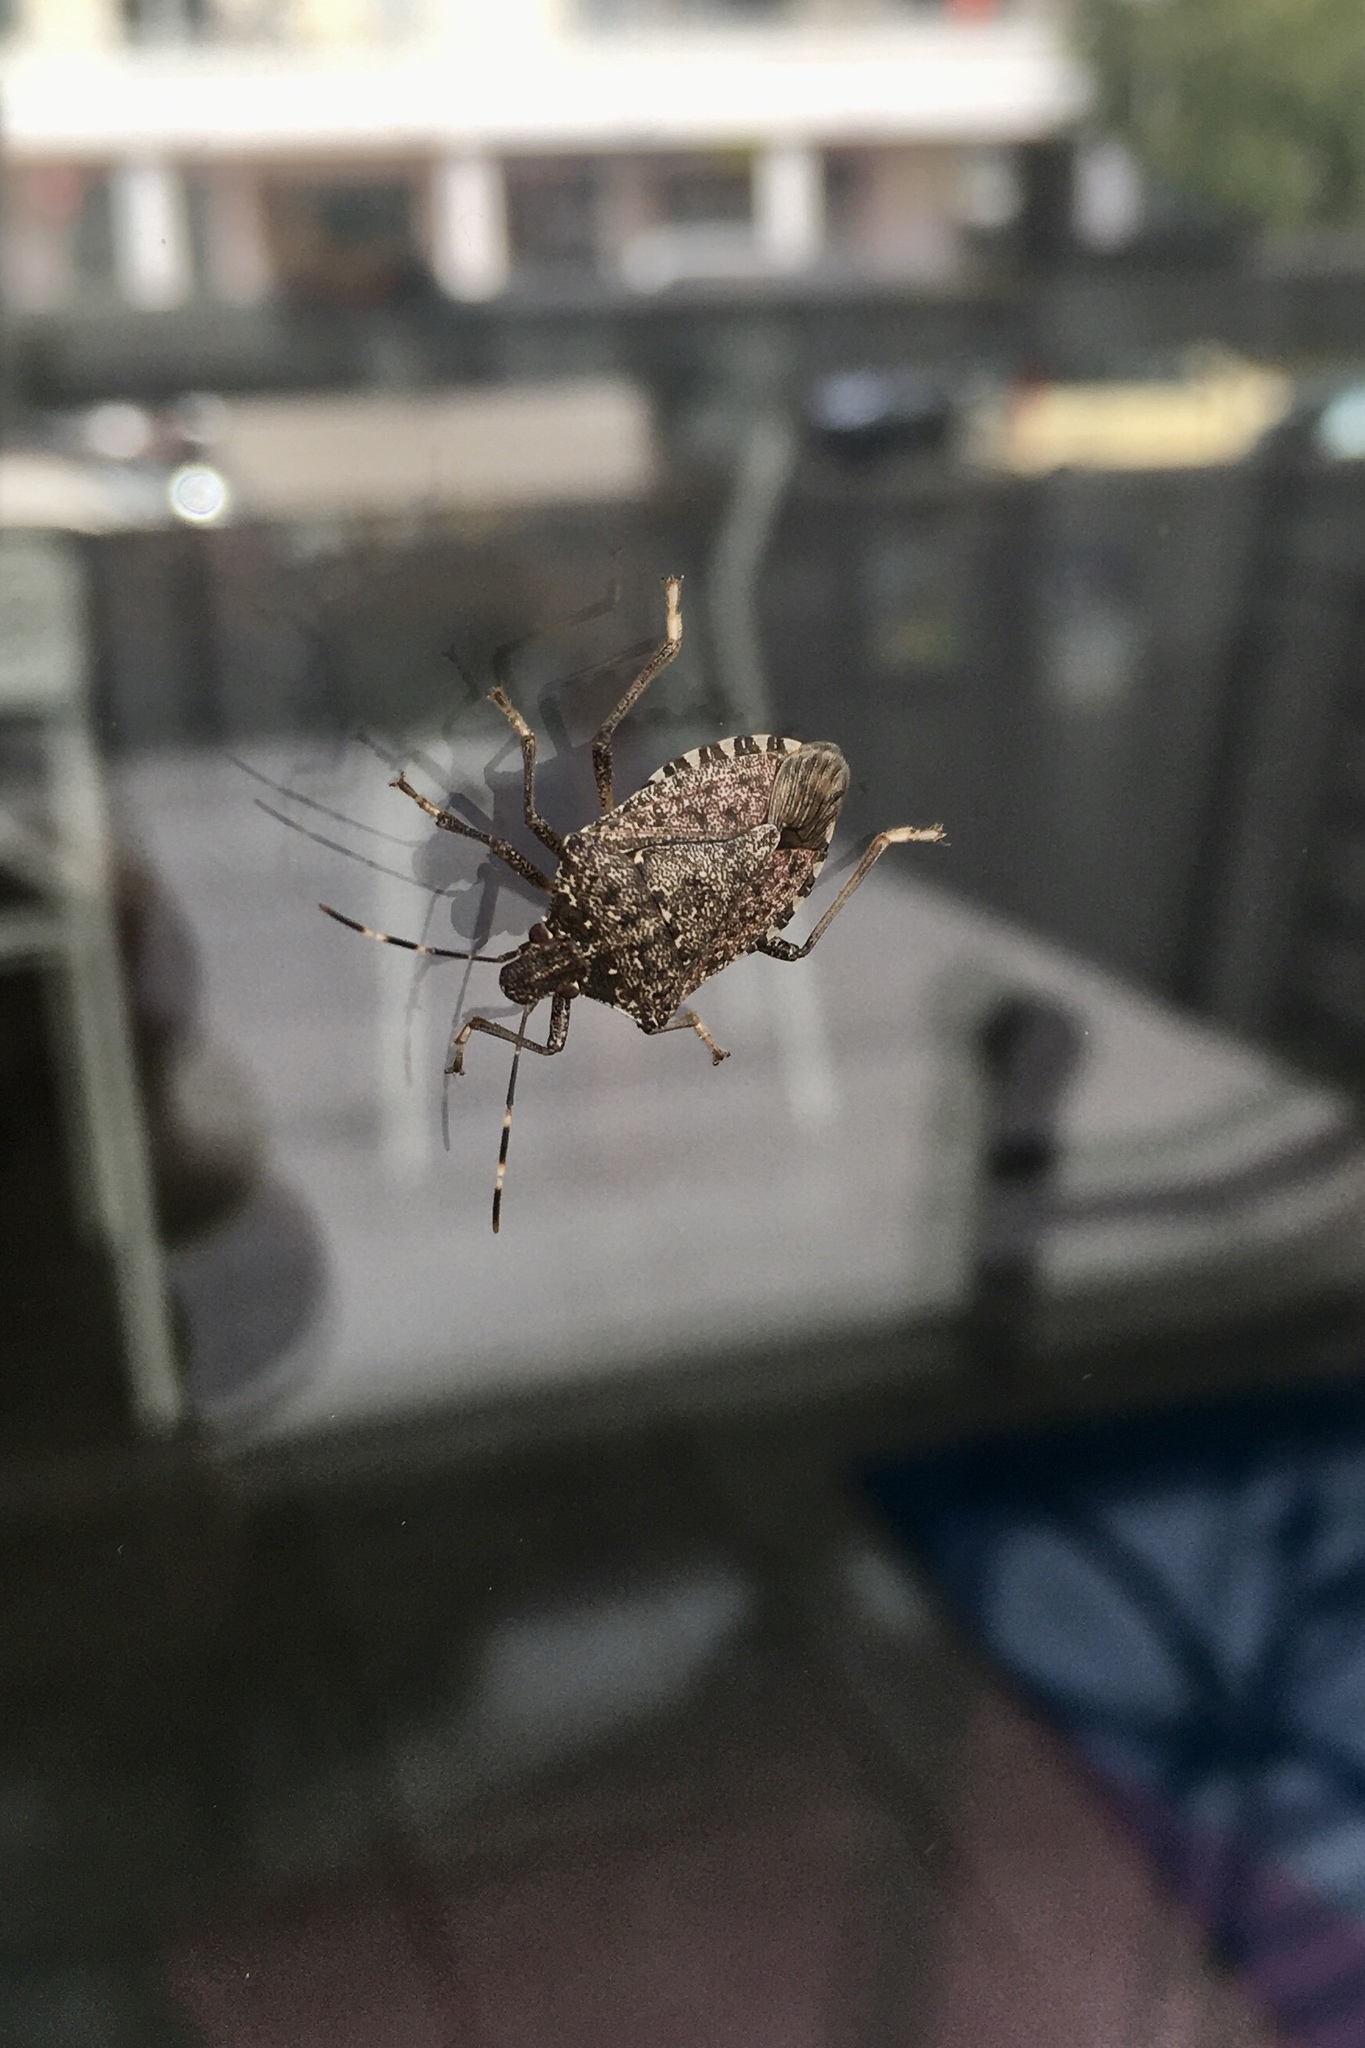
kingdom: Animalia
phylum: Arthropoda
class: Insecta
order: Hemiptera
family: Pentatomidae
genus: Halyomorpha
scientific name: Halyomorpha halys
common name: Brown marmorated stink bug
